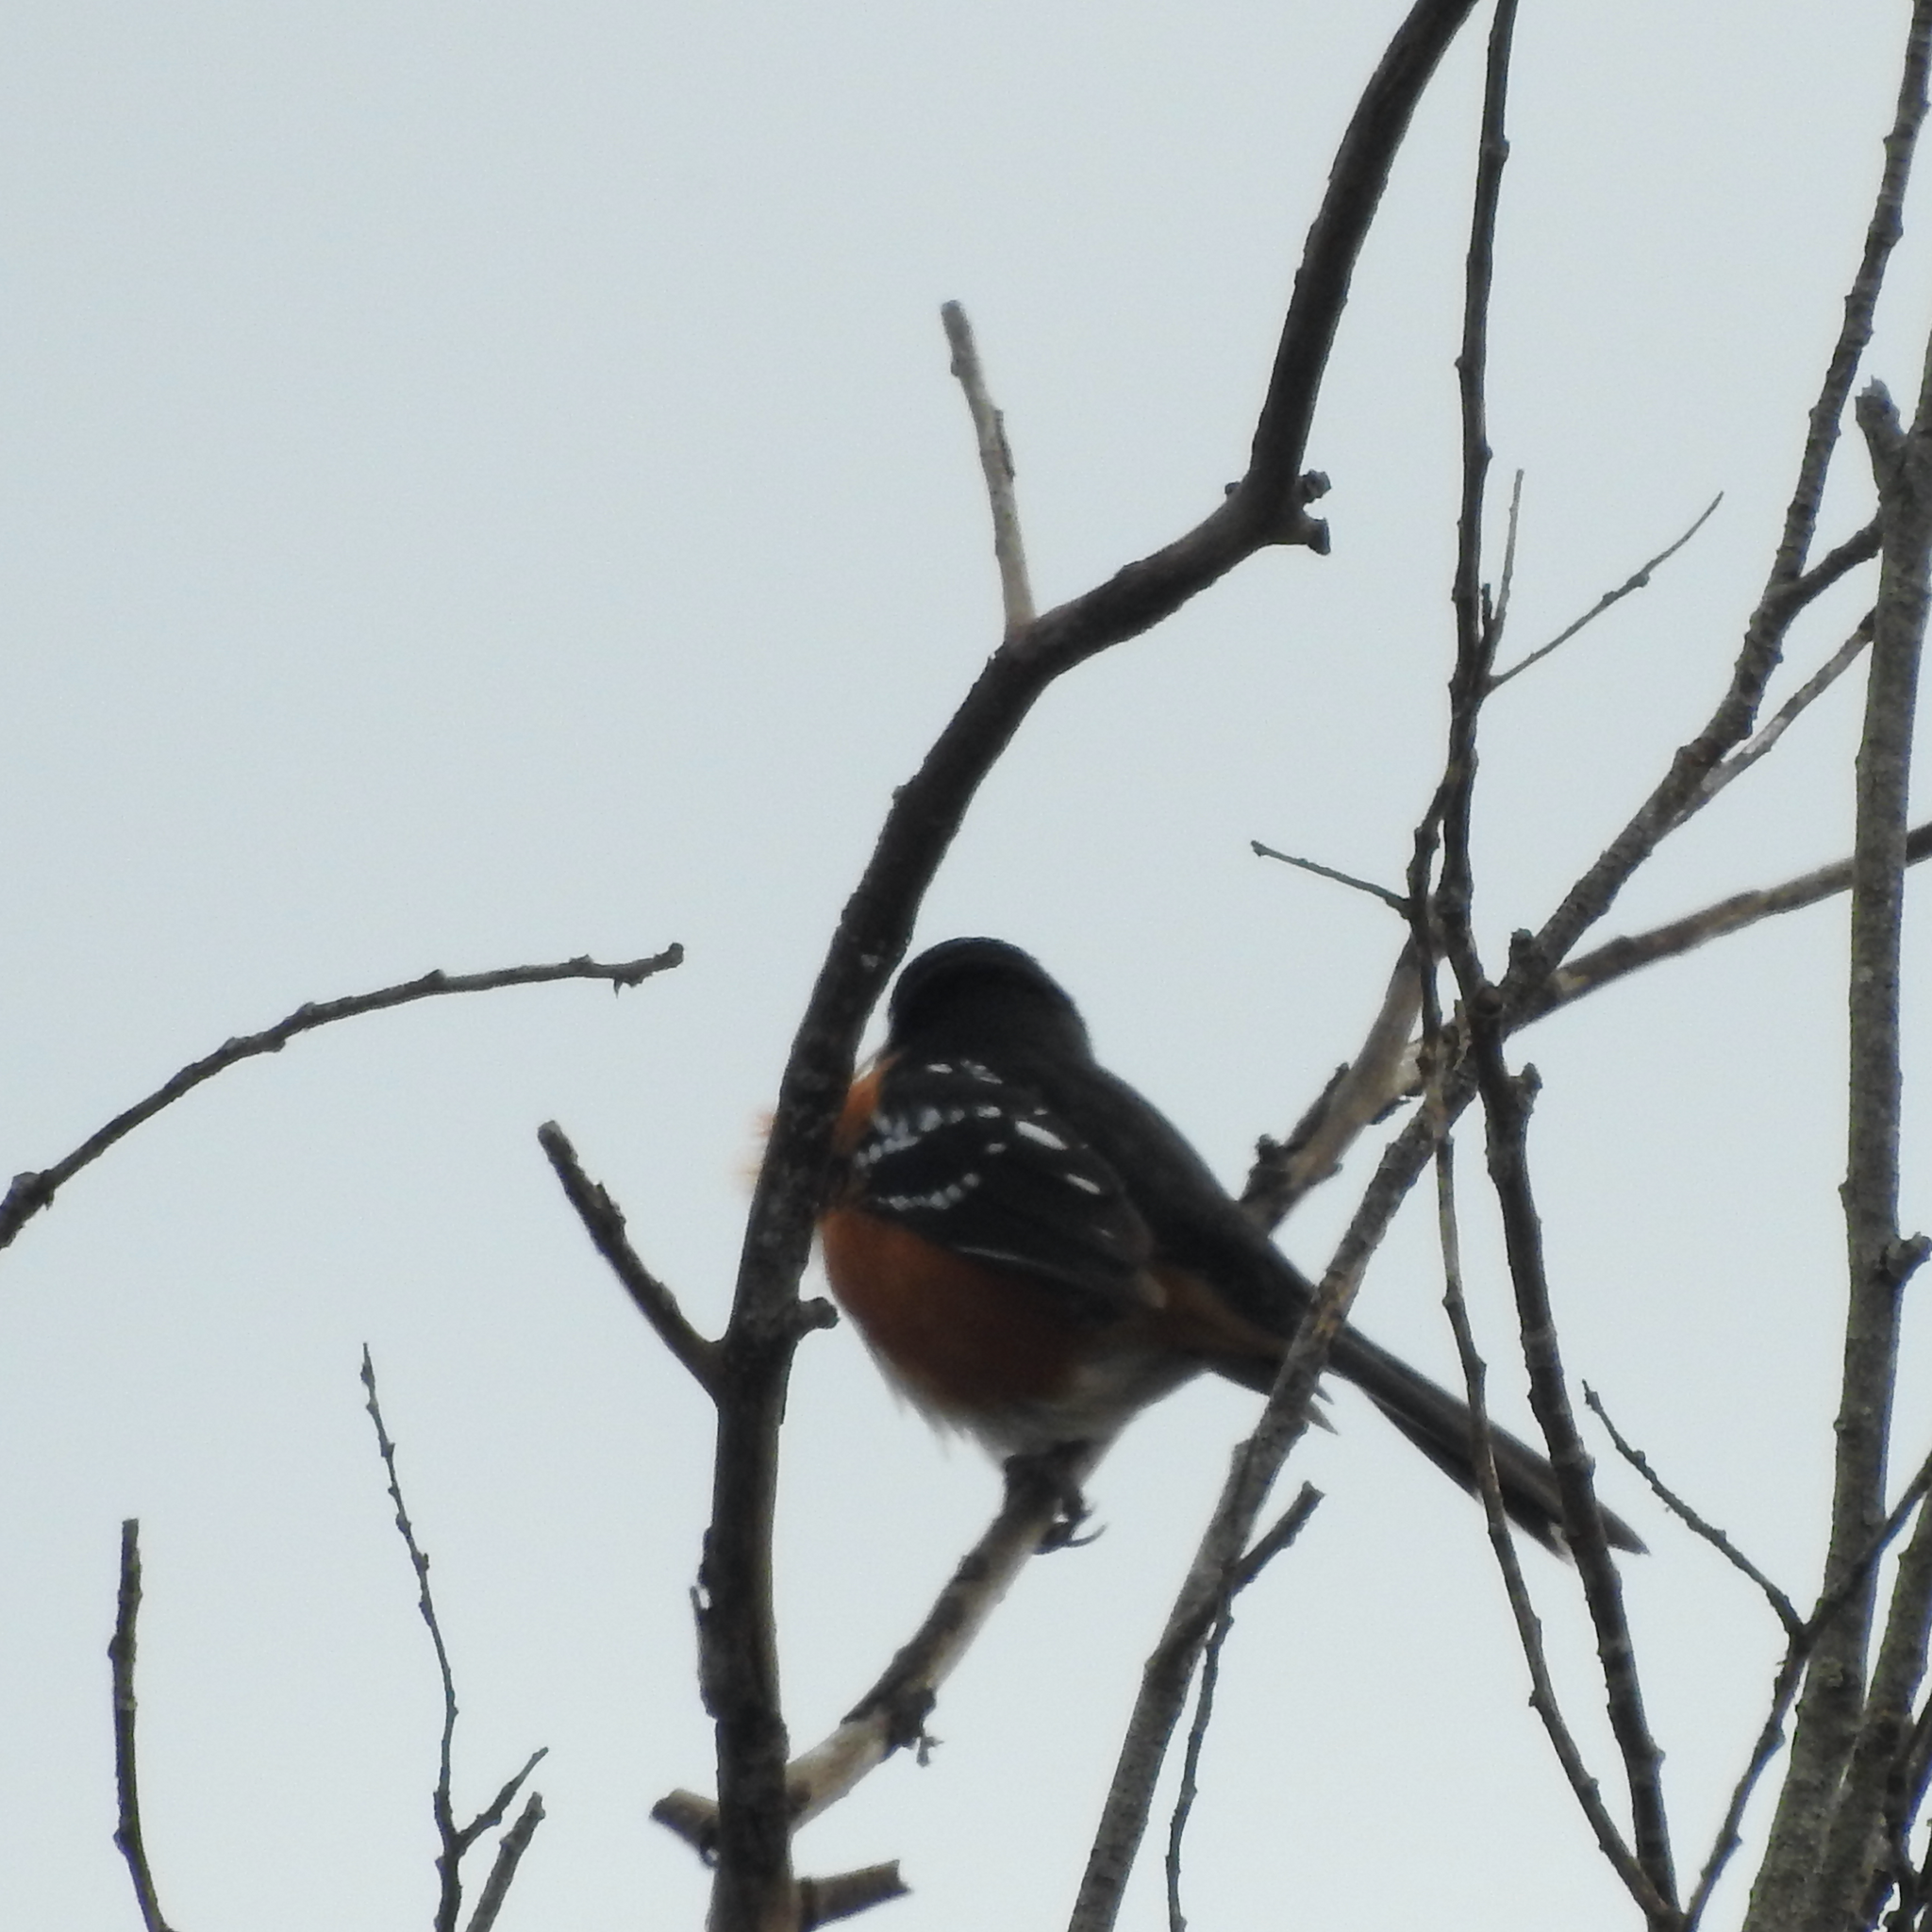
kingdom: Animalia
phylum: Chordata
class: Aves
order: Passeriformes
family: Passerellidae
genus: Pipilo
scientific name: Pipilo maculatus
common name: Spotted towhee
